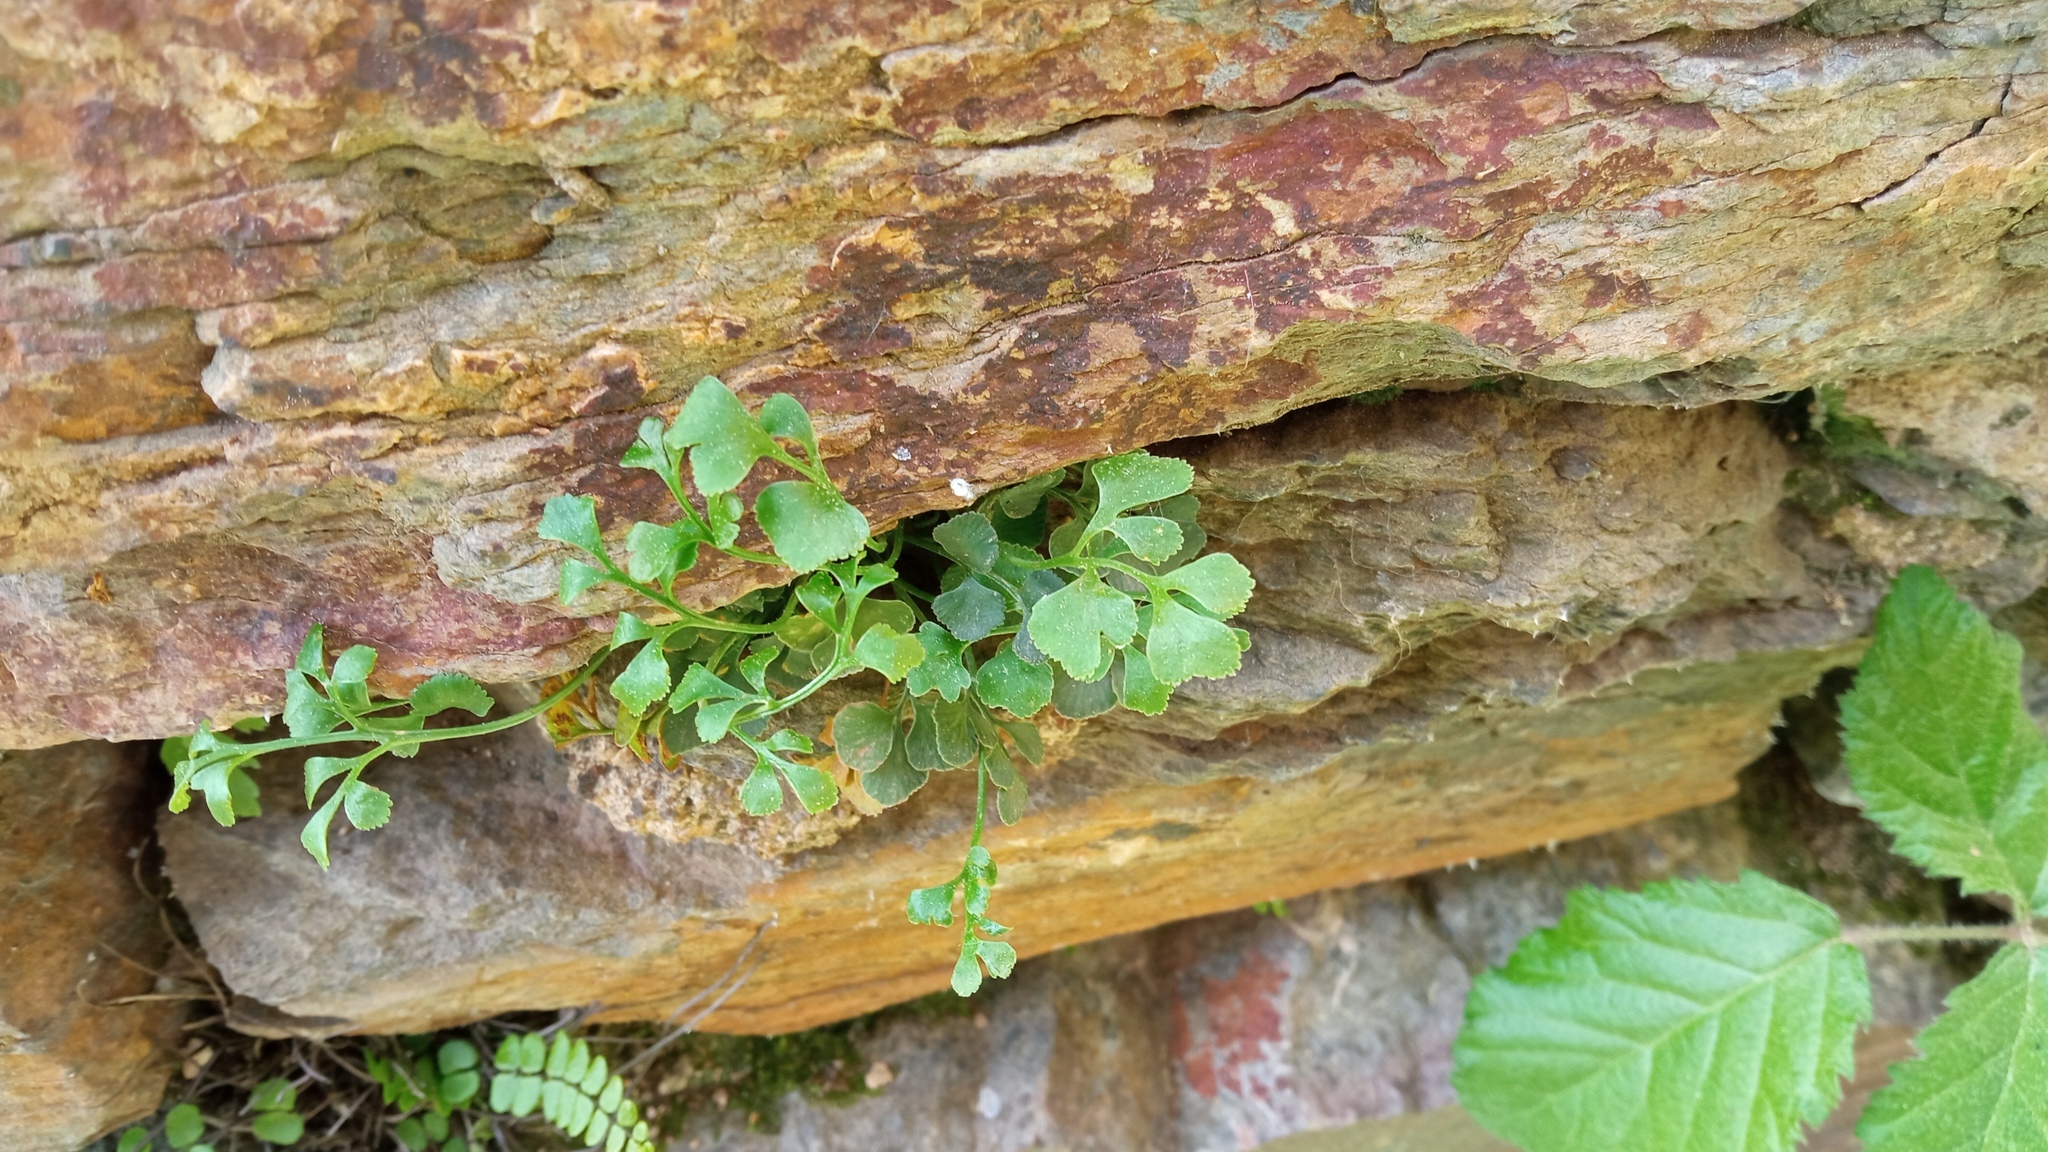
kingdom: Plantae
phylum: Tracheophyta
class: Polypodiopsida
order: Polypodiales
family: Aspleniaceae
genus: Asplenium
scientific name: Asplenium ruta-muraria
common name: Wall-rue
